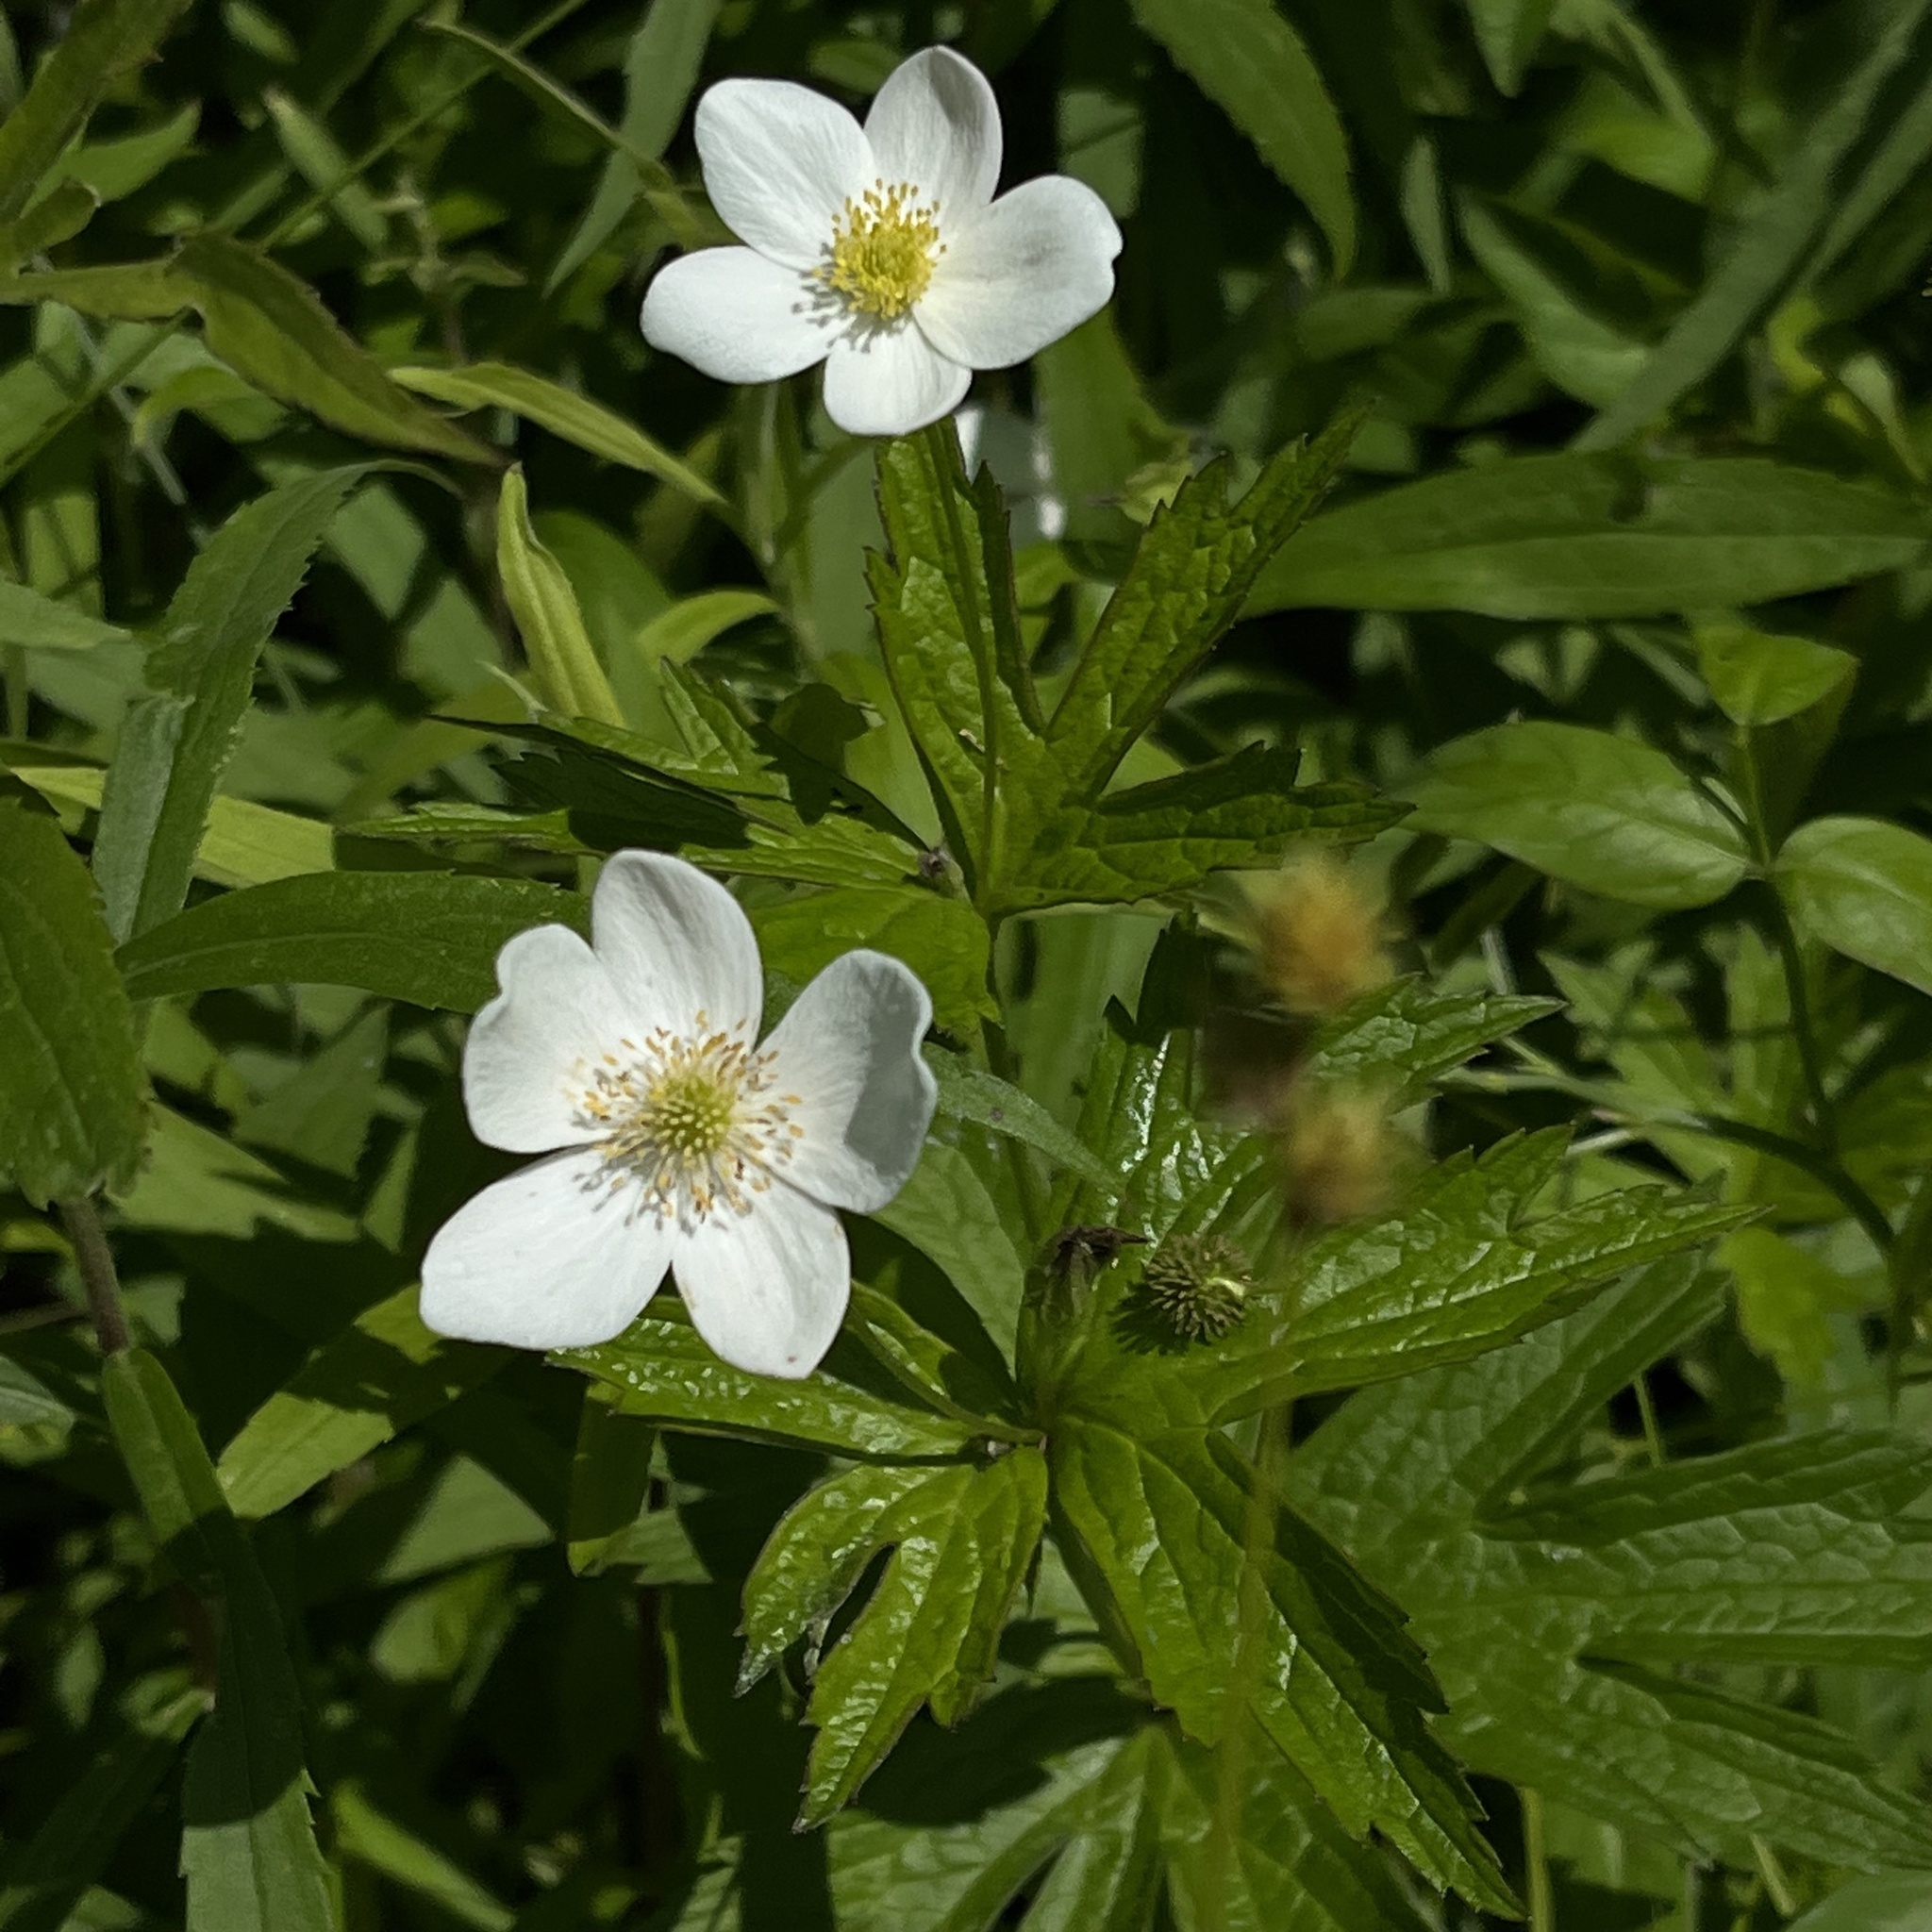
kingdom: Plantae
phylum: Tracheophyta
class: Magnoliopsida
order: Ranunculales
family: Ranunculaceae
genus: Anemonastrum
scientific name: Anemonastrum canadense
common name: Canada anemone
